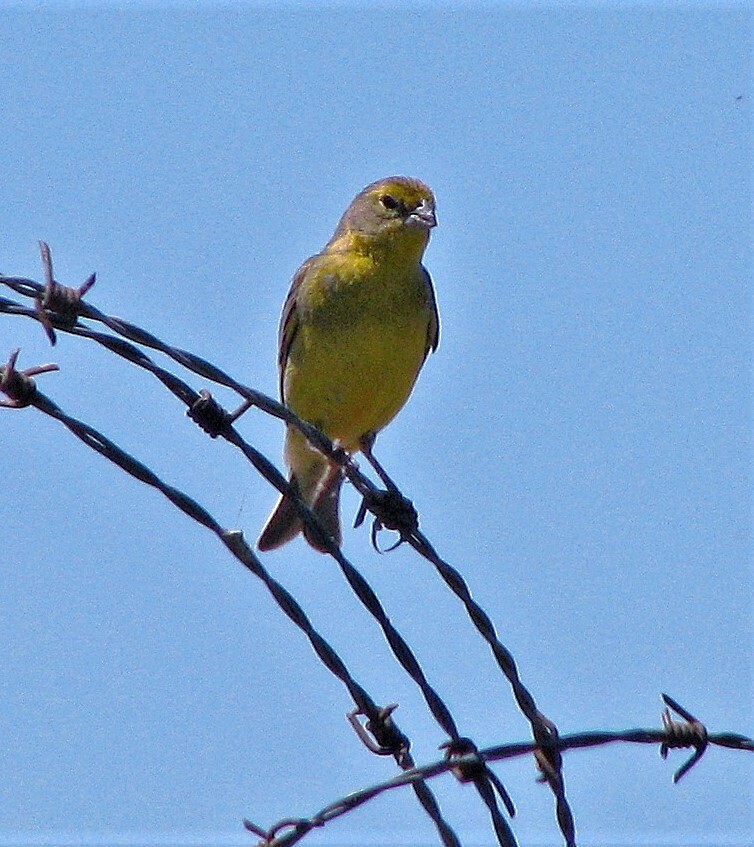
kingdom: Animalia
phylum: Chordata
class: Aves
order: Passeriformes
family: Thraupidae
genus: Sicalis
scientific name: Sicalis luteola
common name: Grassland yellow-finch
